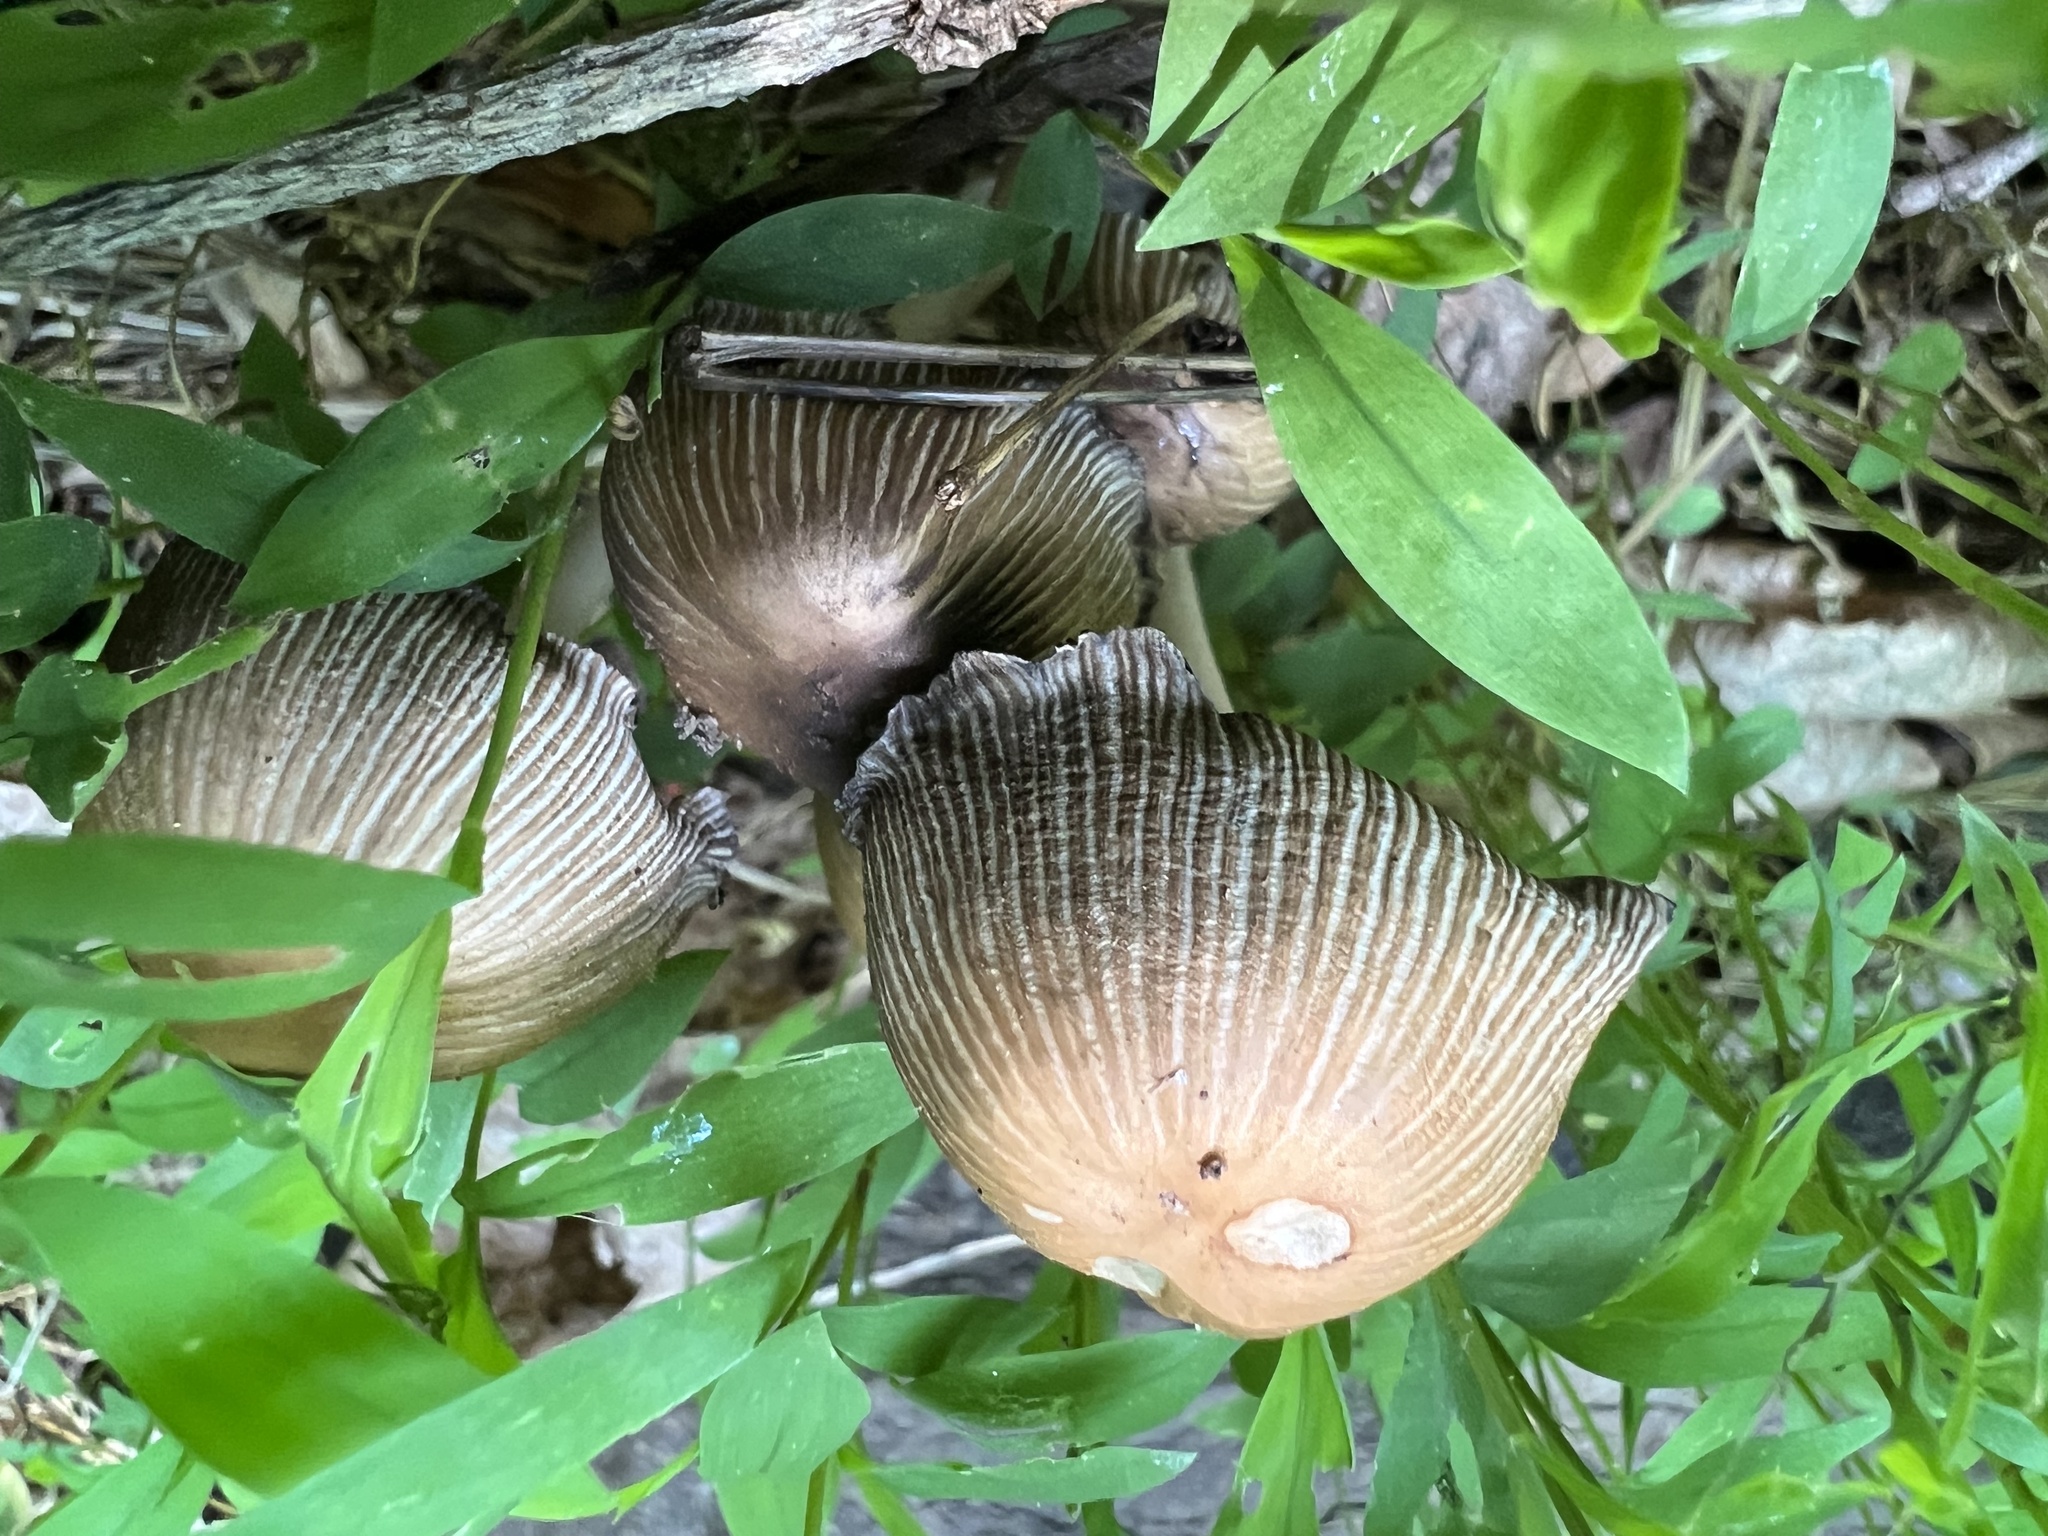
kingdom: Fungi
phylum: Basidiomycota
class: Agaricomycetes
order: Agaricales
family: Psathyrellaceae
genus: Coprinellus
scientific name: Coprinellus micaceus
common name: Glistening ink-cap
